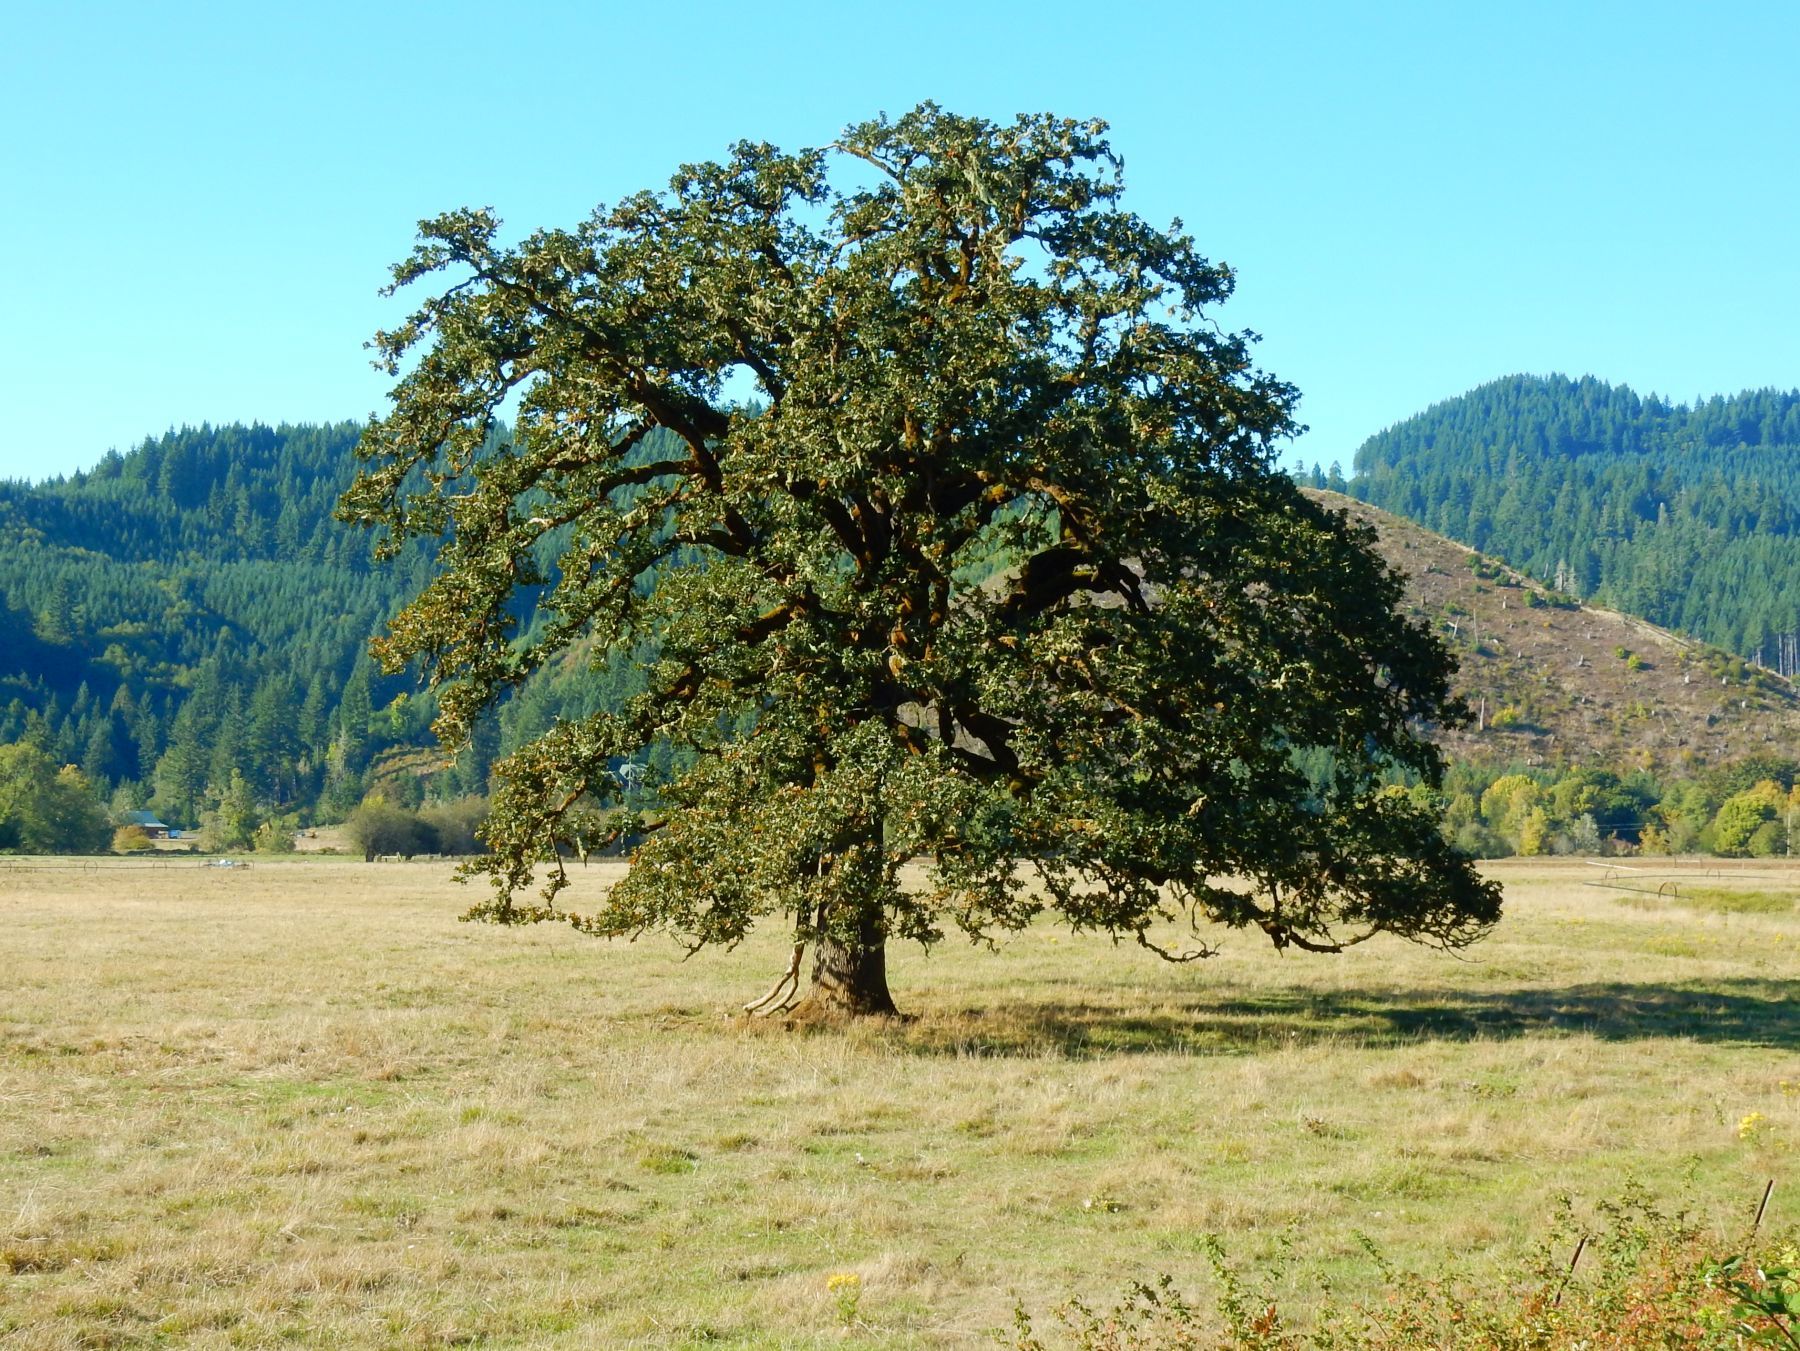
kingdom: Plantae
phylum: Tracheophyta
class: Magnoliopsida
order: Fagales
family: Fagaceae
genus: Quercus
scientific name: Quercus garryana
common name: Garry oak
